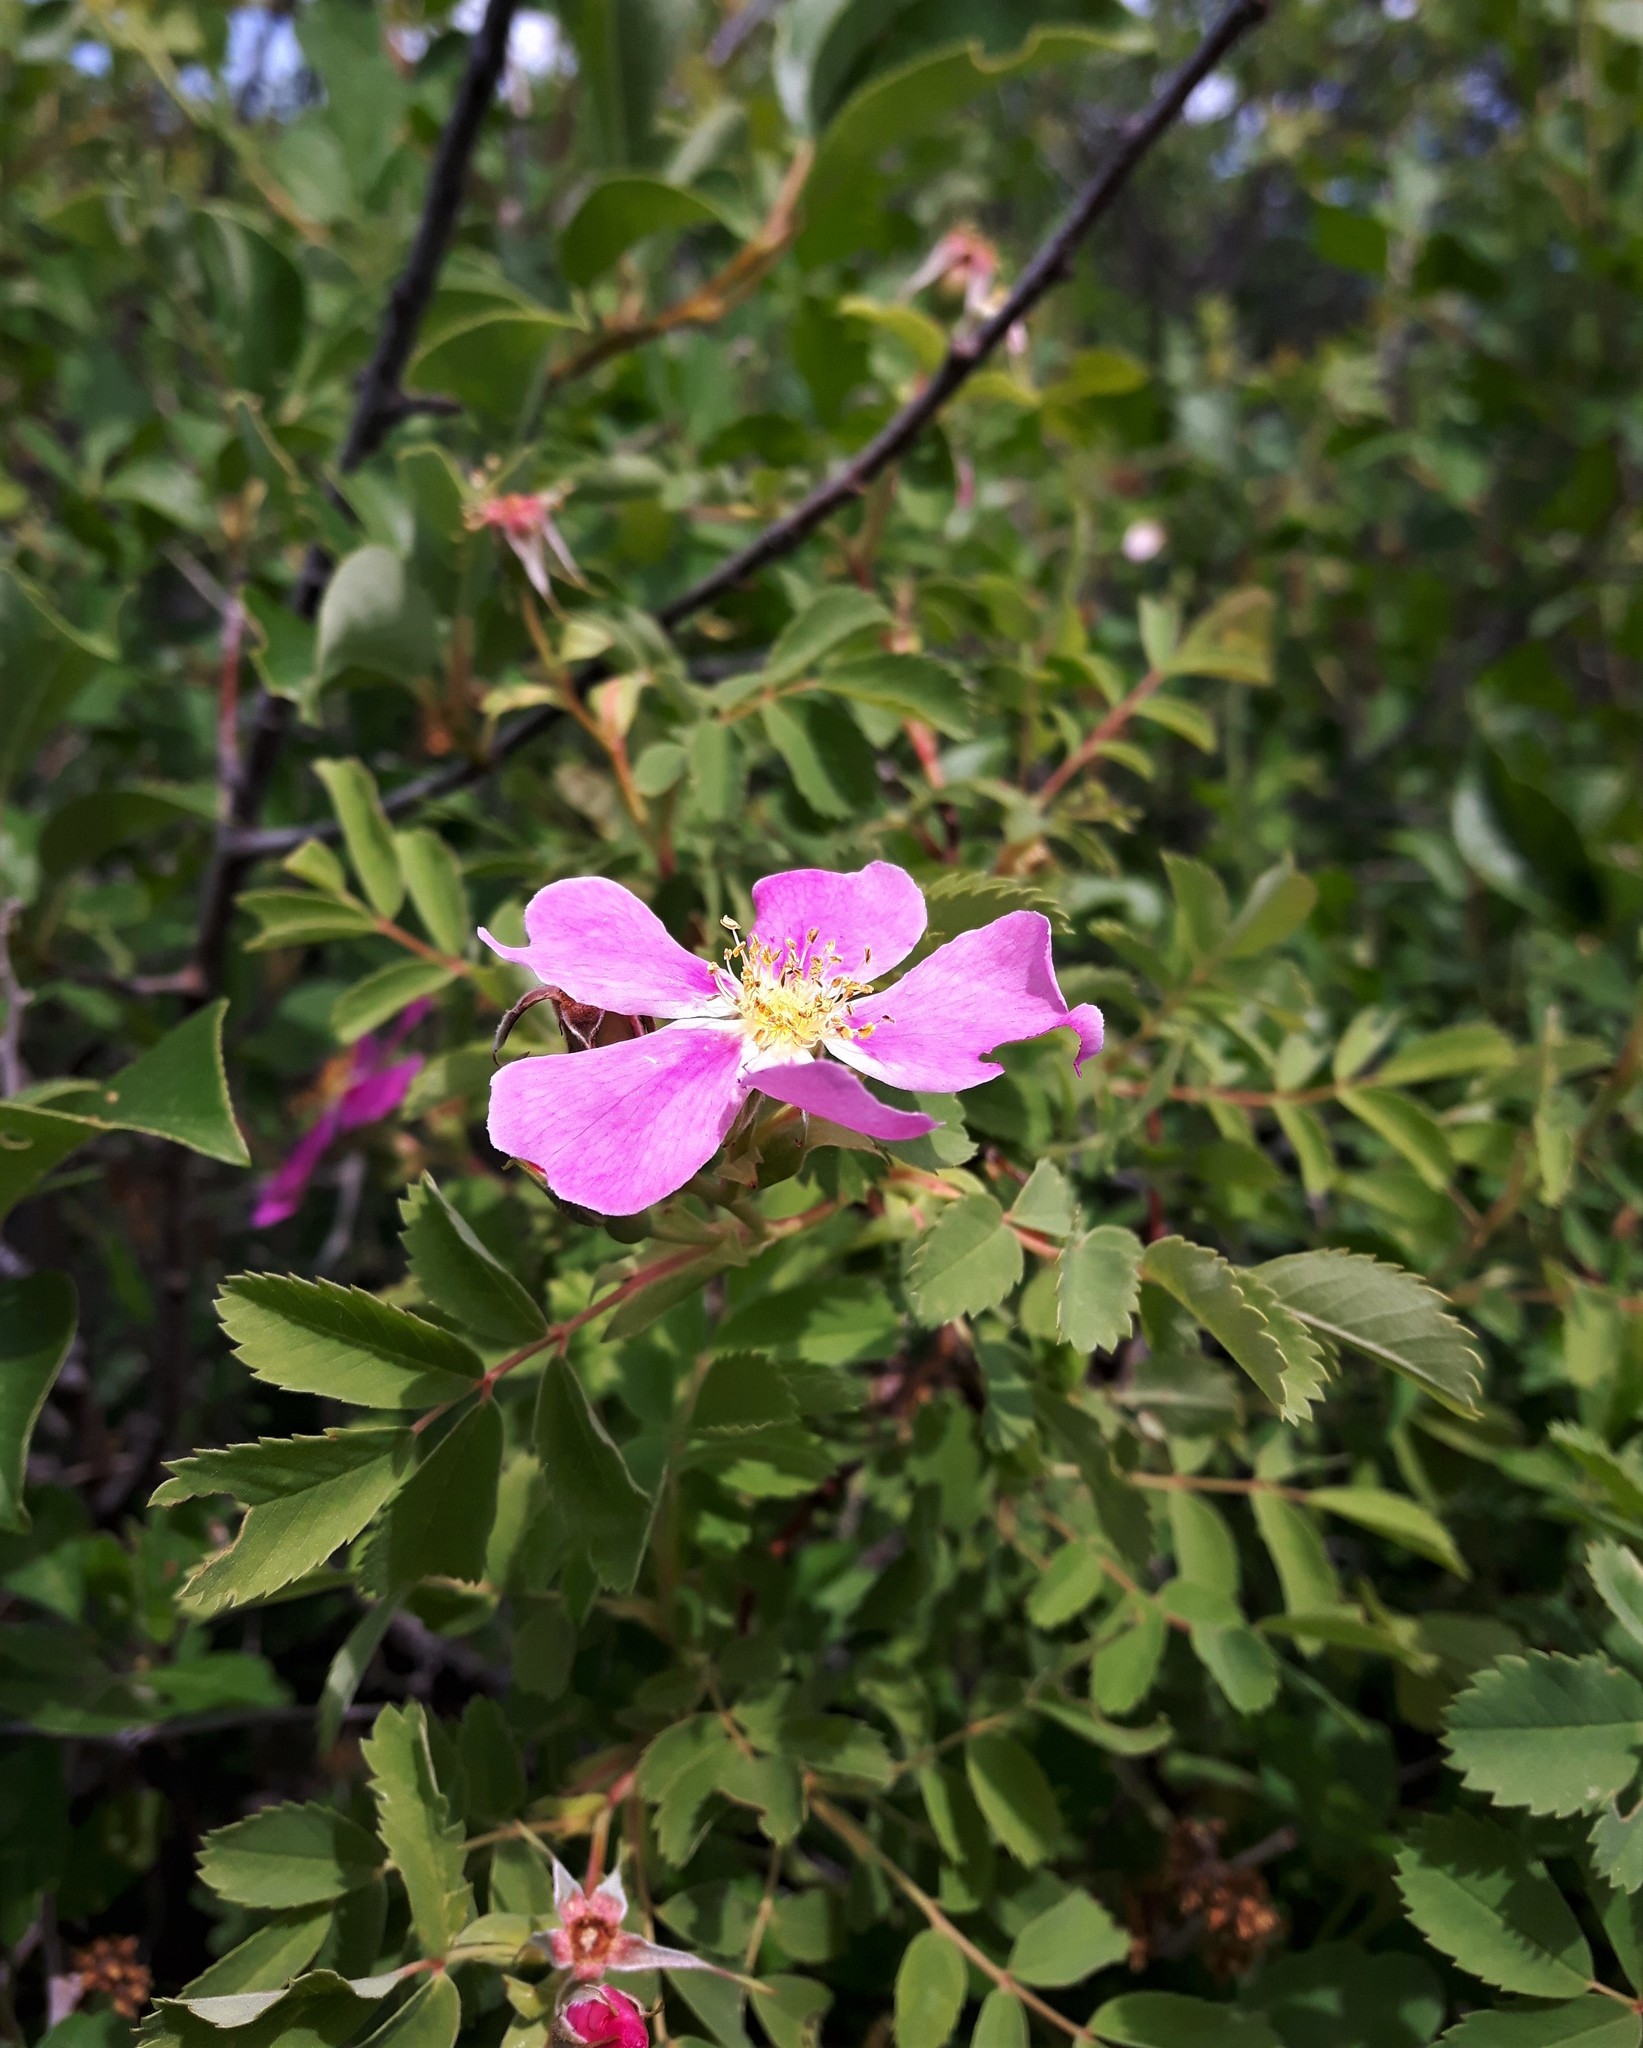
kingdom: Plantae
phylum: Tracheophyta
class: Magnoliopsida
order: Rosales
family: Rosaceae
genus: Rosa
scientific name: Rosa woodsii
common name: Woods's rose
